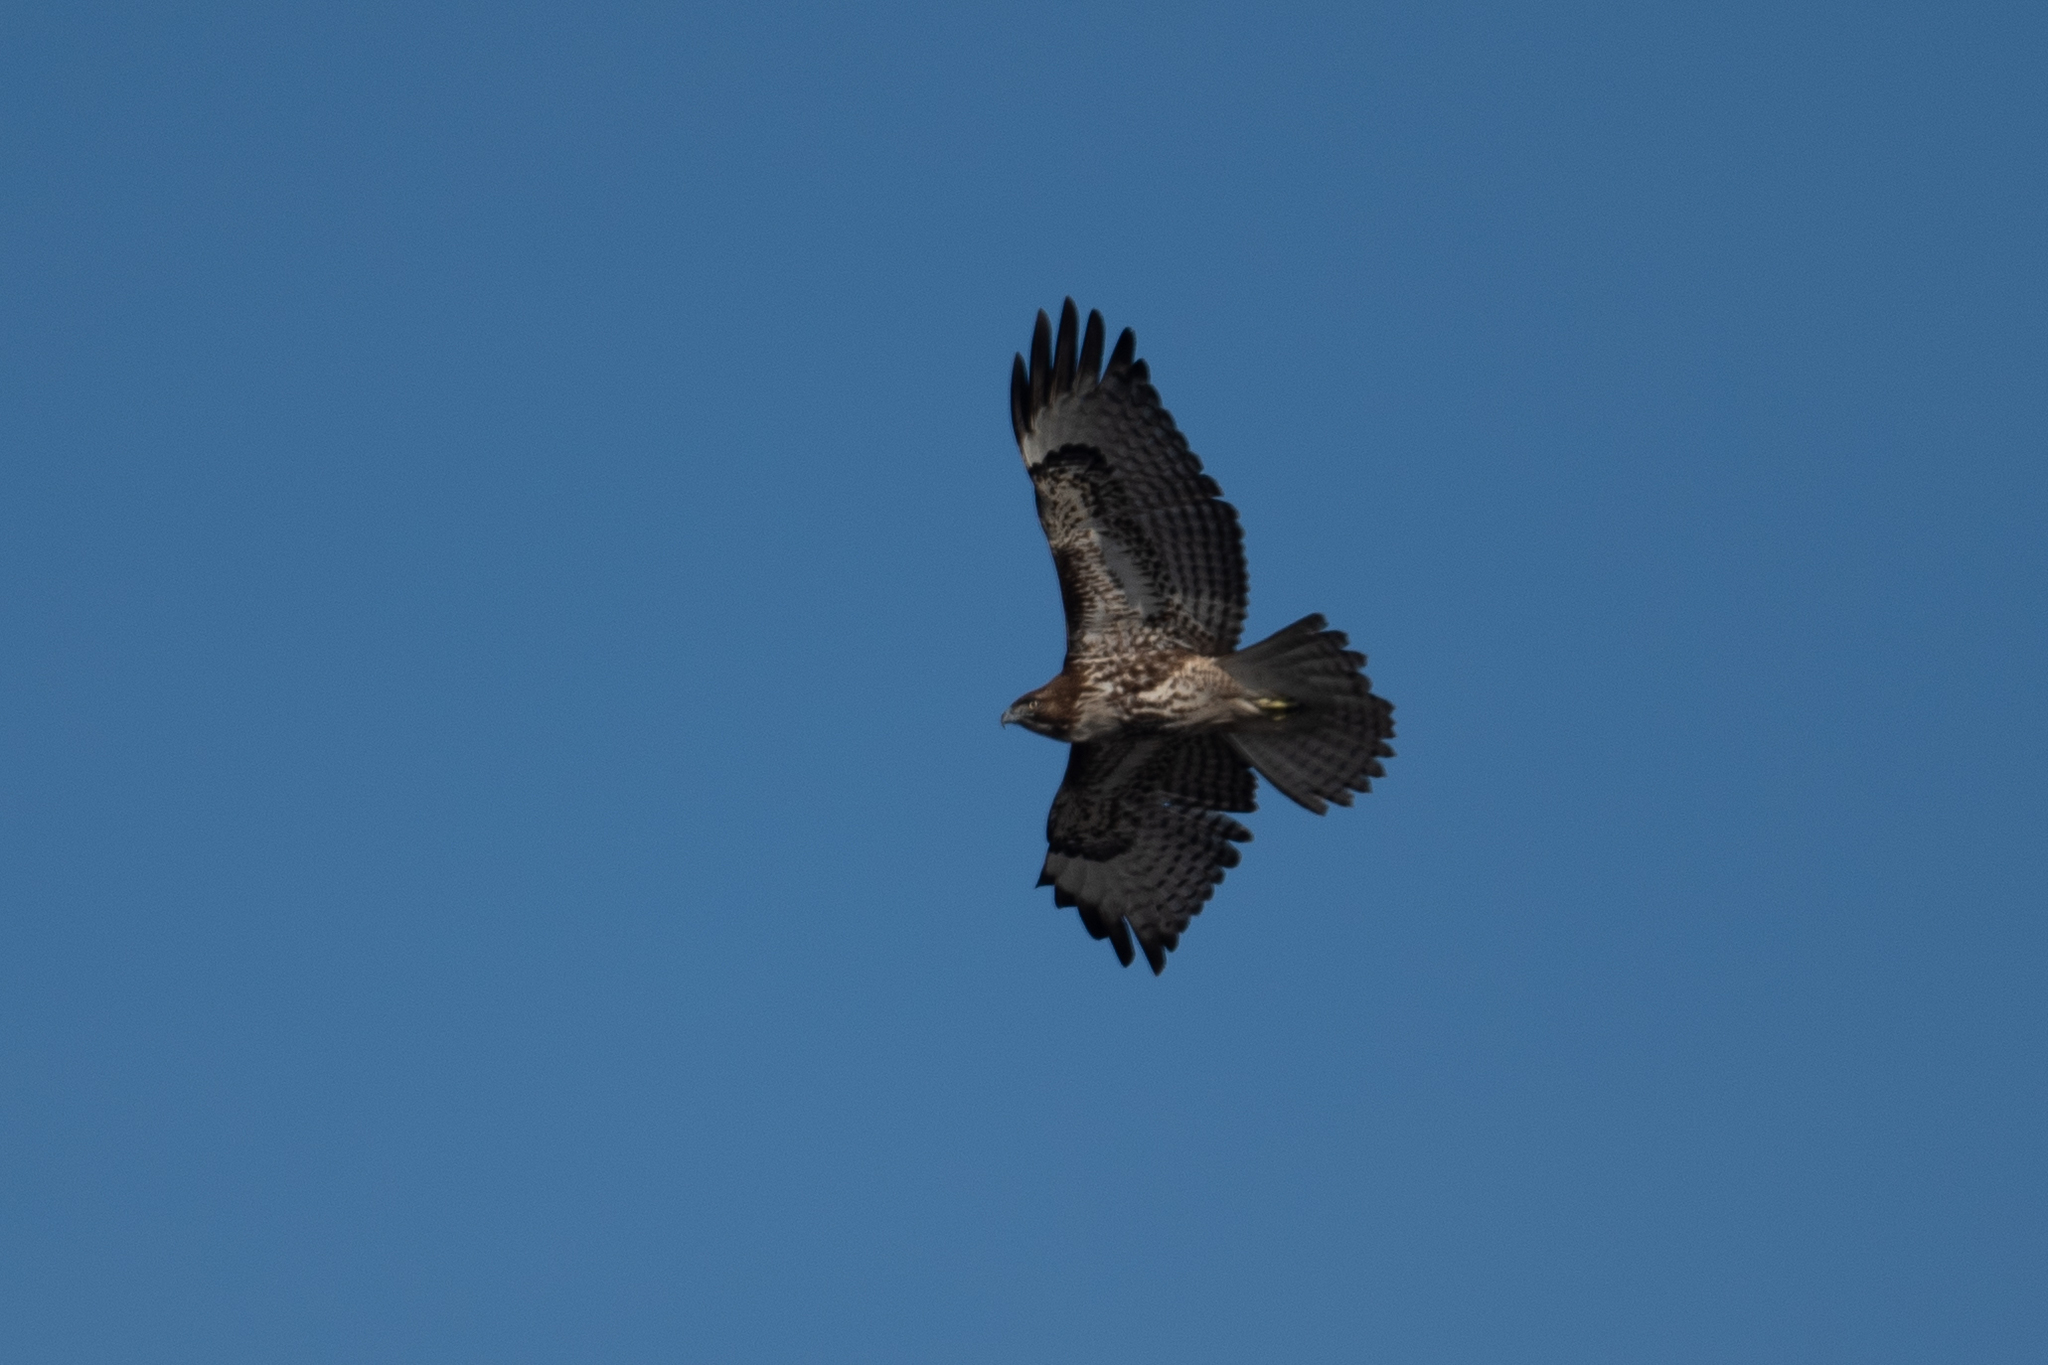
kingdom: Animalia
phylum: Chordata
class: Aves
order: Accipitriformes
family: Accipitridae
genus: Buteo
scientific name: Buteo jamaicensis
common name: Red-tailed hawk
